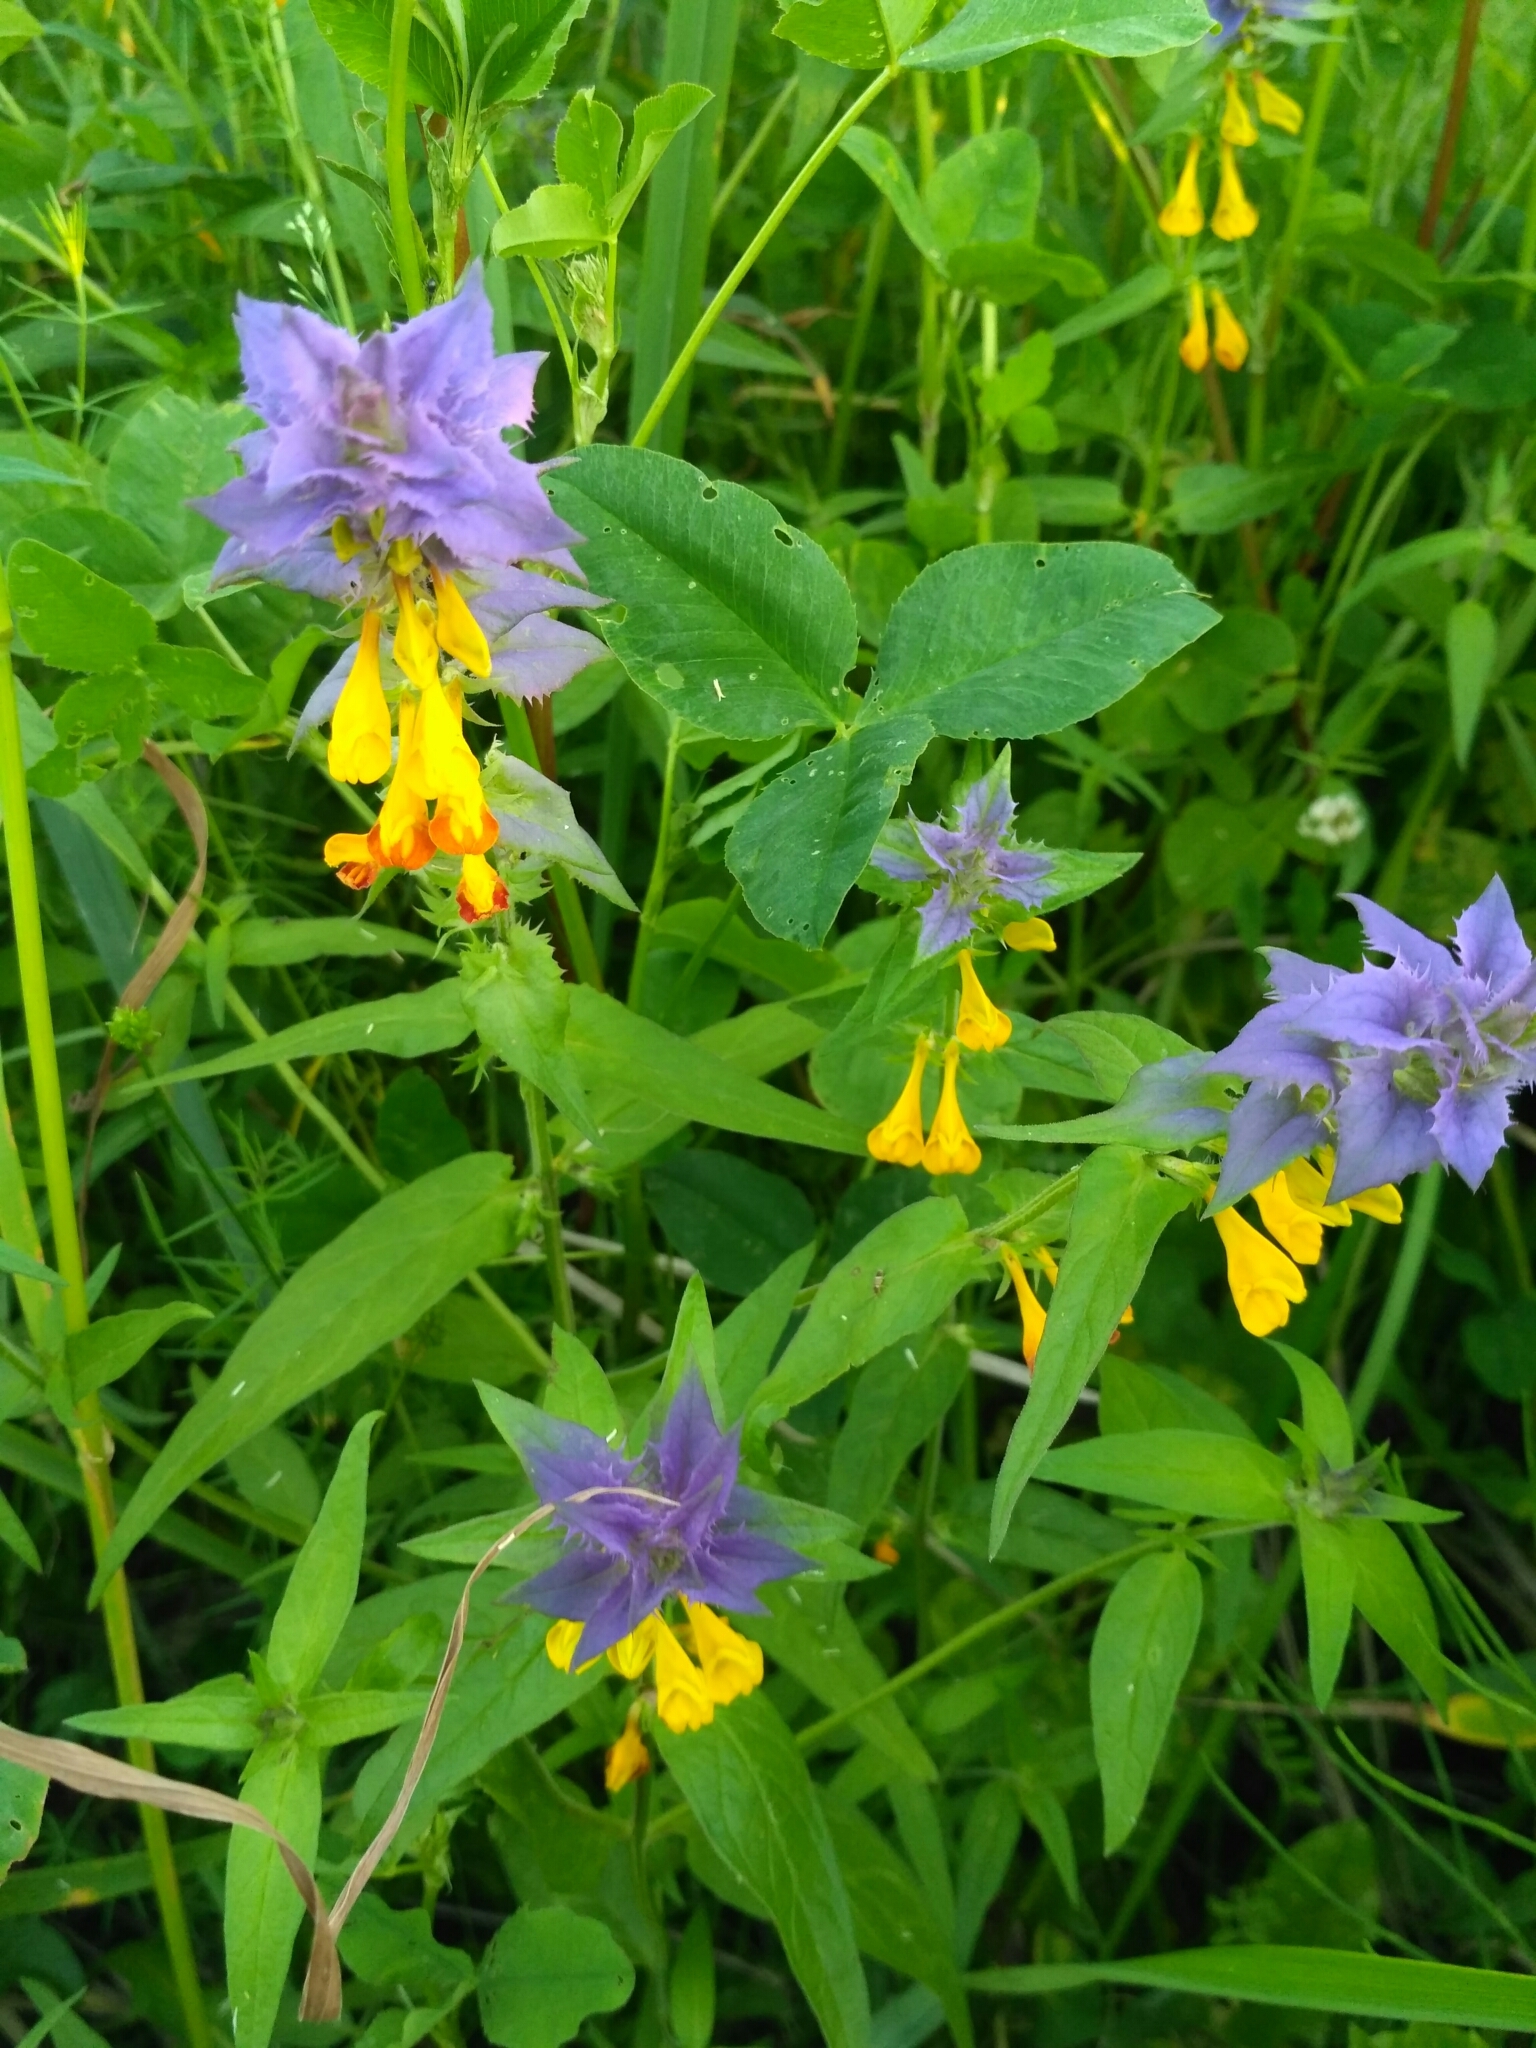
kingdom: Plantae
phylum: Tracheophyta
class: Magnoliopsida
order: Lamiales
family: Orobanchaceae
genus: Melampyrum
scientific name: Melampyrum nemorosum
